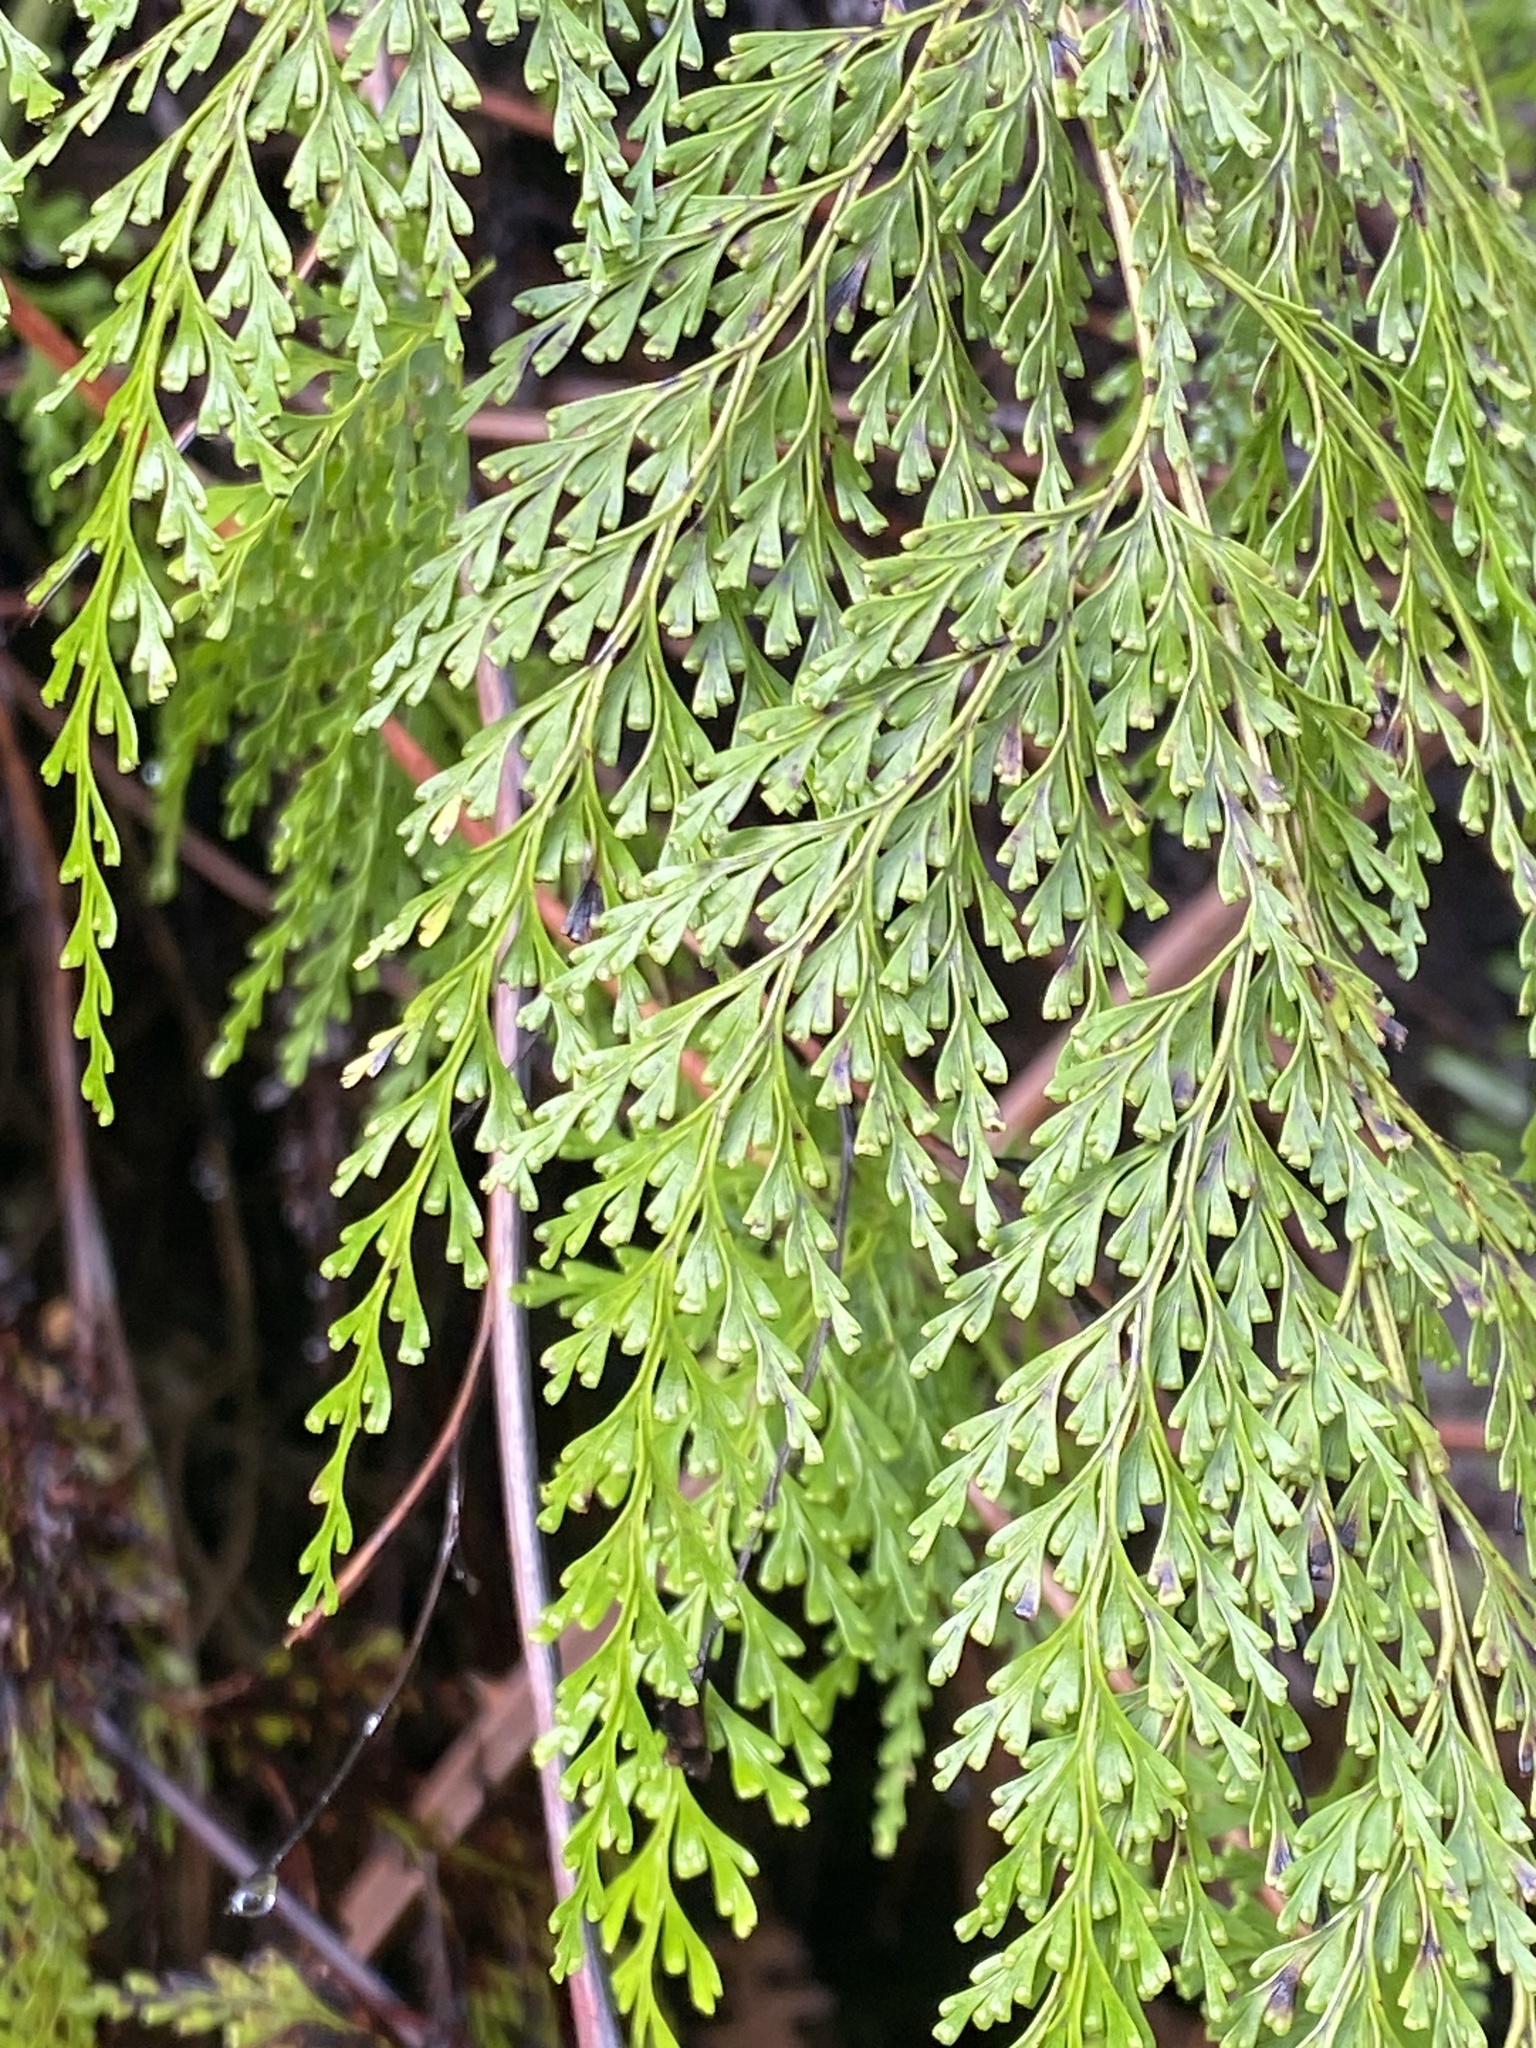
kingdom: Plantae
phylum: Tracheophyta
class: Polypodiopsida
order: Polypodiales
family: Lindsaeaceae
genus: Odontosoria
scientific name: Odontosoria chinensis
